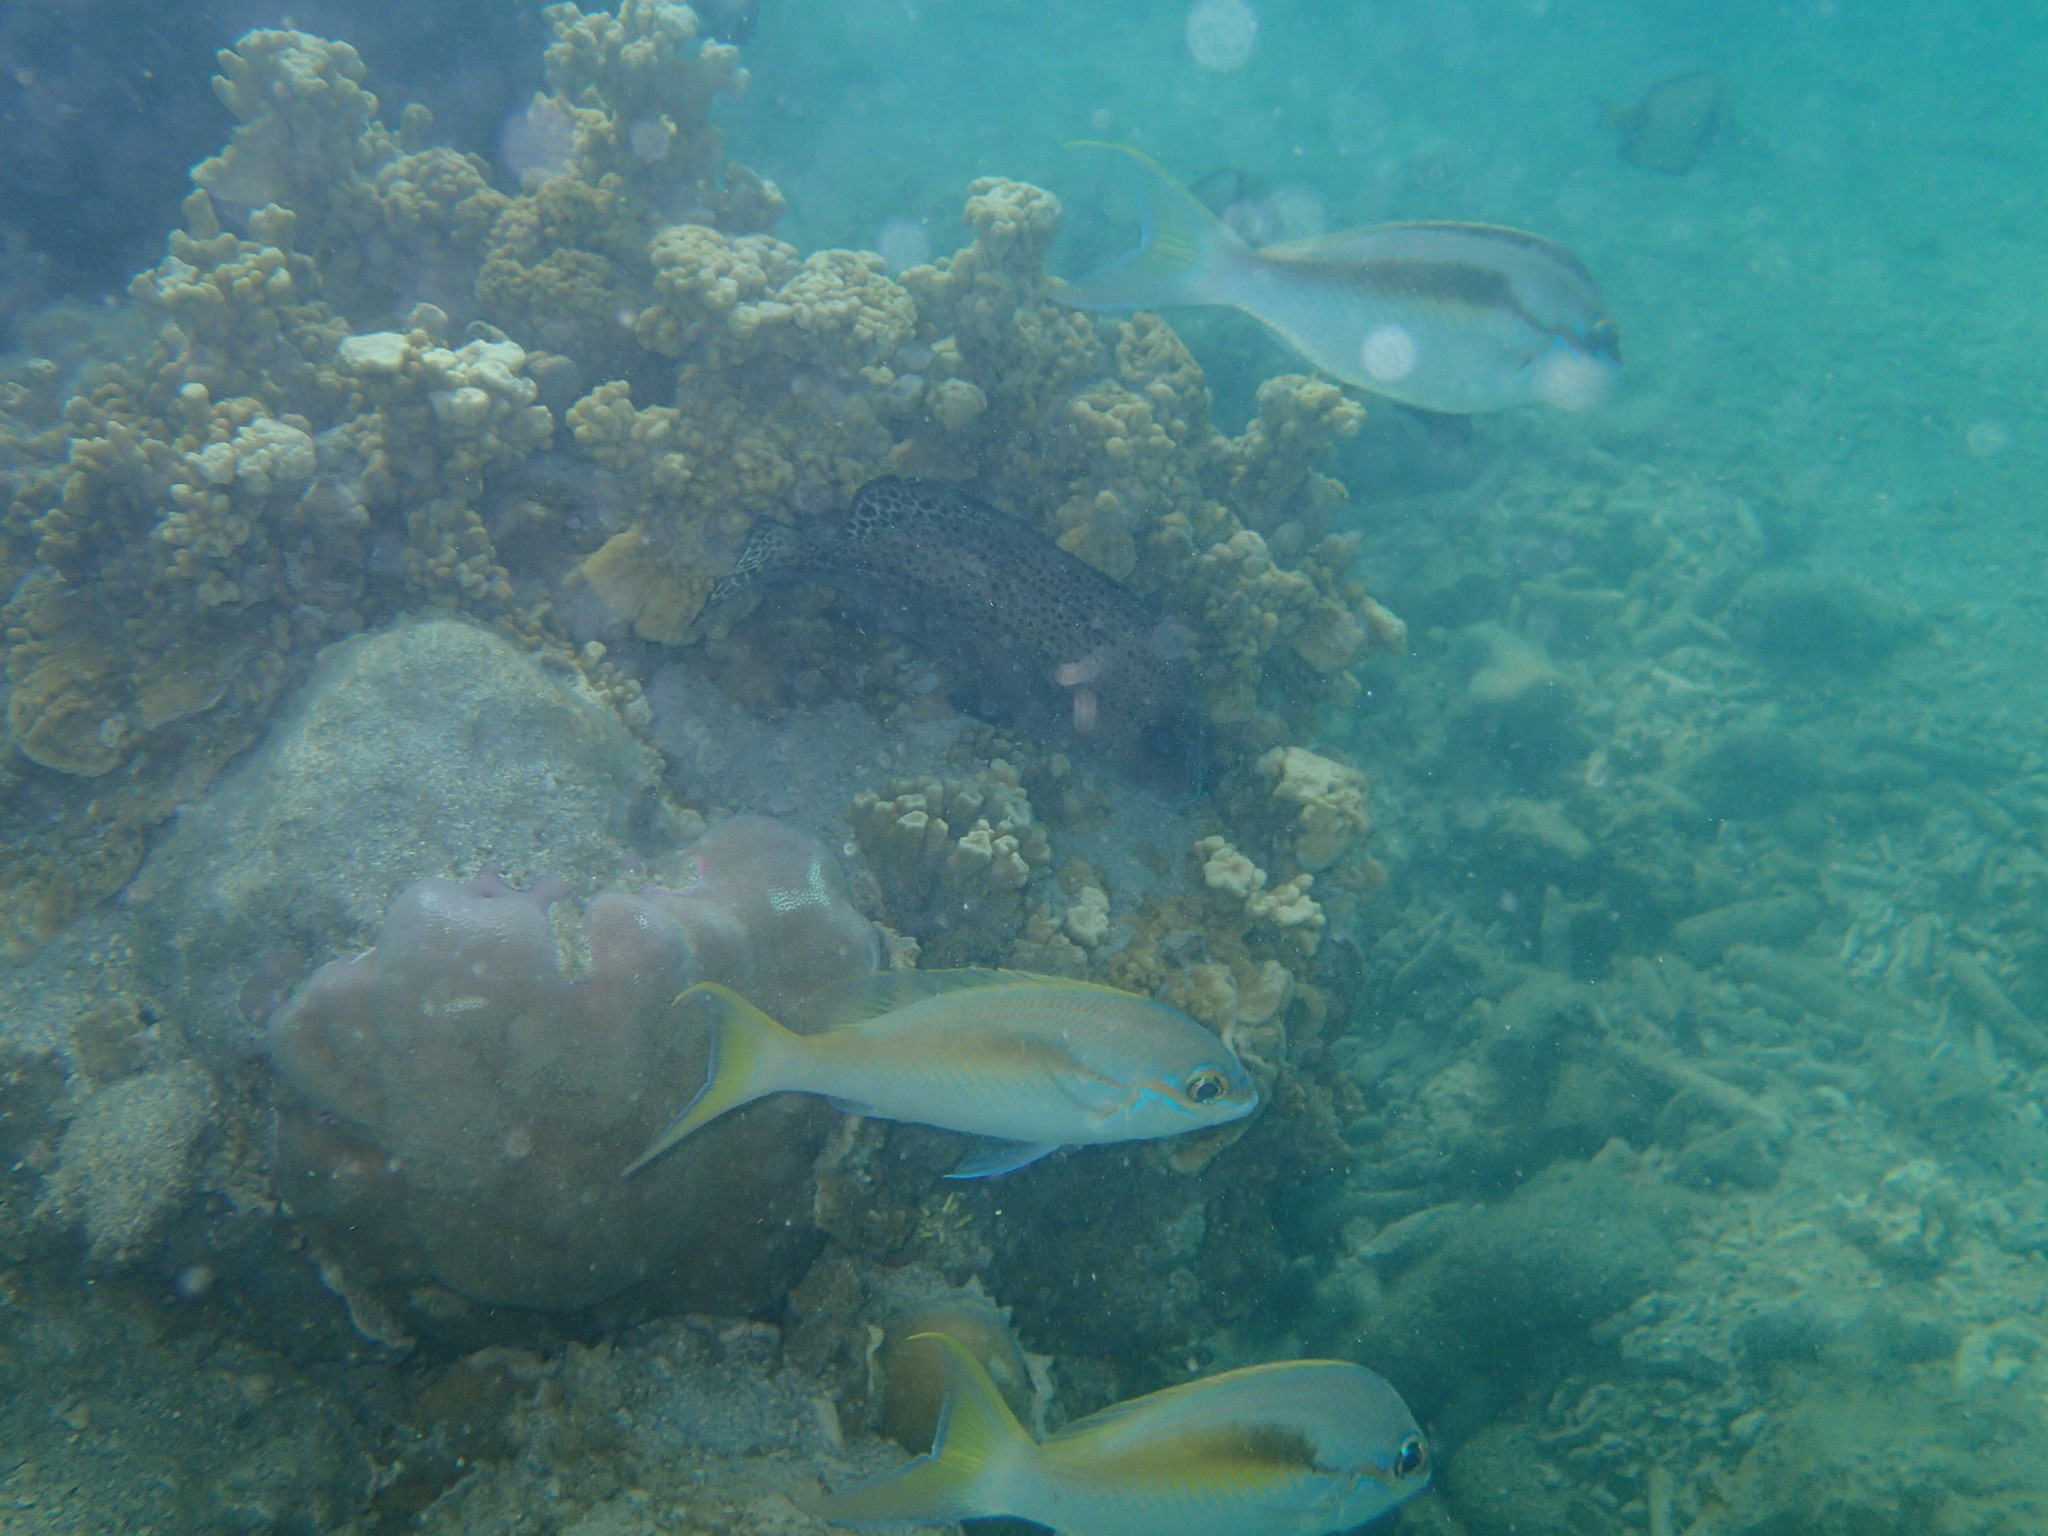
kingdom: Animalia
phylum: Chordata
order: Perciformes
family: Nemipteridae
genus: Scolopsis
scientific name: Scolopsis monogramma
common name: Monogrammed monocle bream
